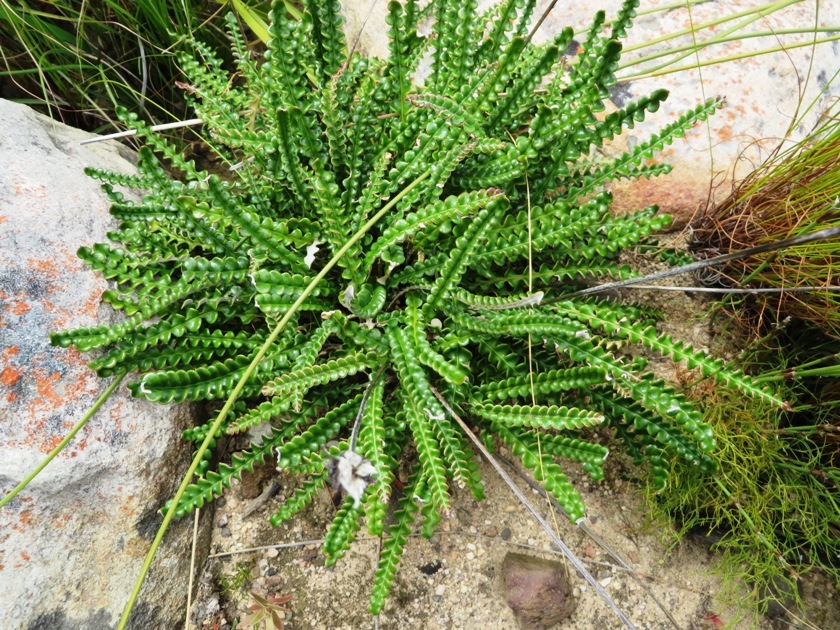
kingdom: Plantae
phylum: Tracheophyta
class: Magnoliopsida
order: Asterales
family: Asteraceae
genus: Gerbera
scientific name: Gerbera linnaei
